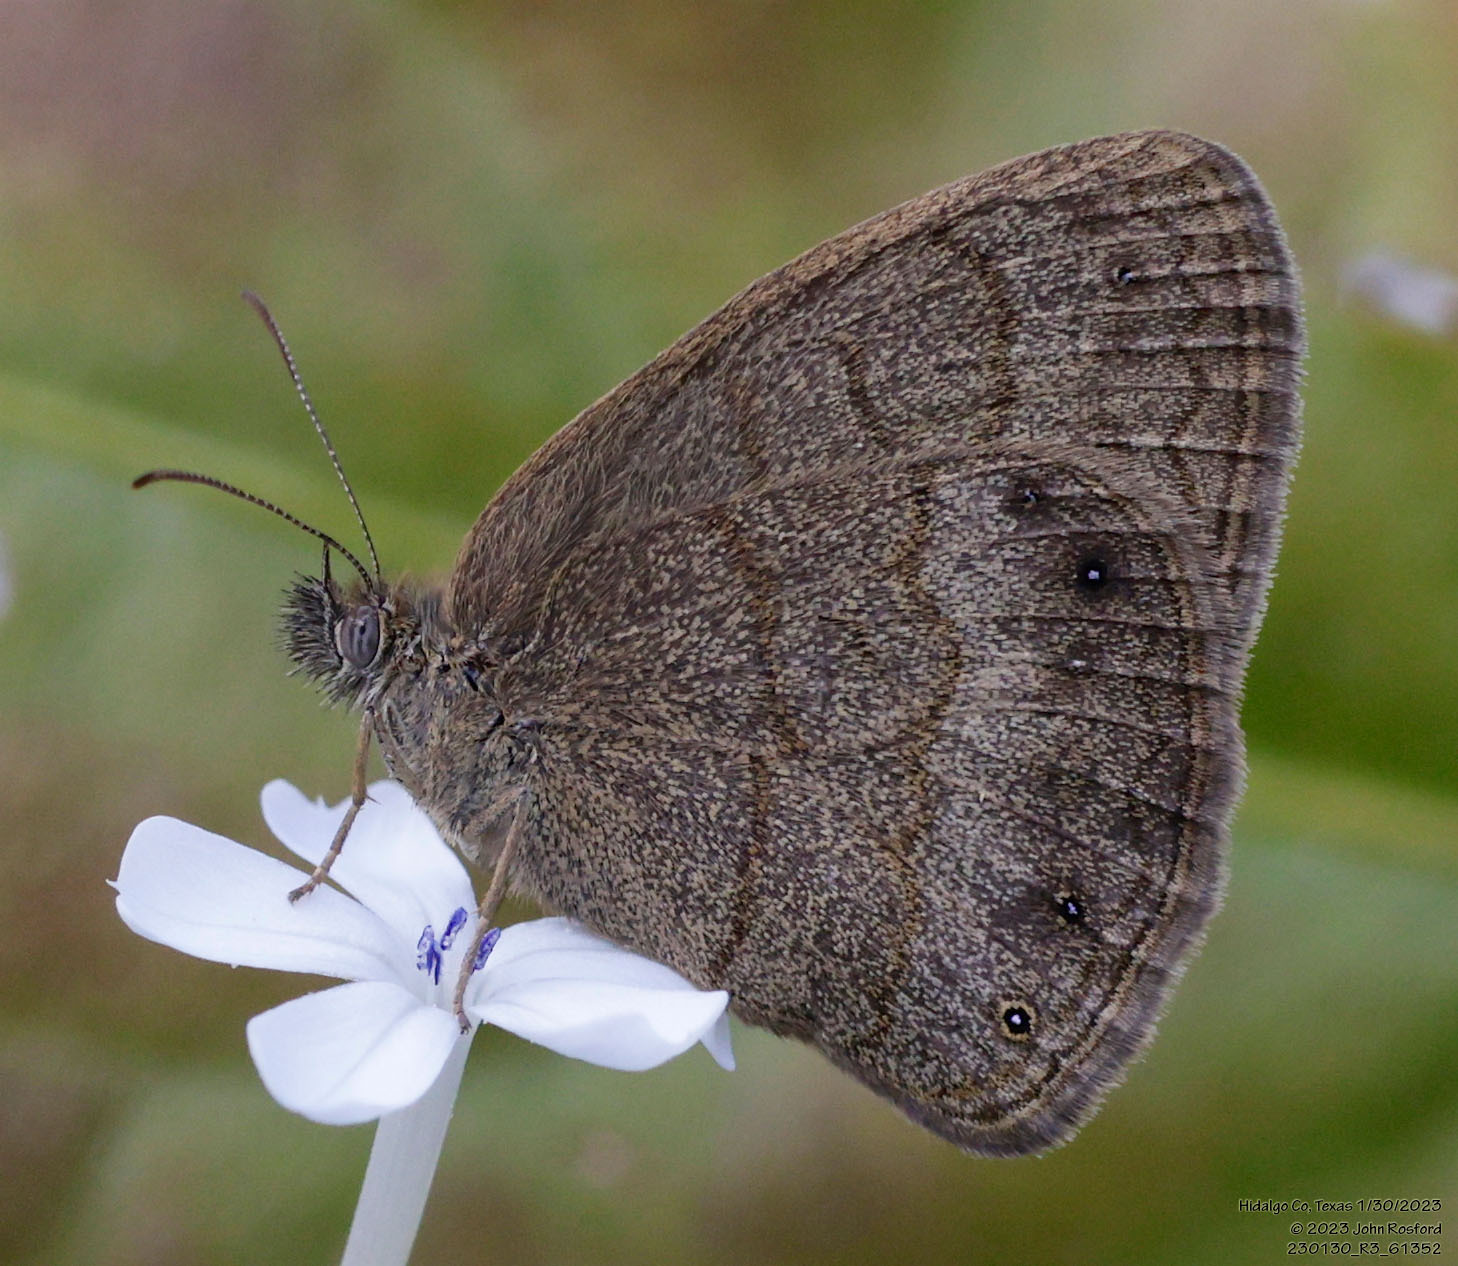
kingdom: Animalia
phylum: Arthropoda
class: Insecta
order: Lepidoptera
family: Nymphalidae
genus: Hermeuptychia
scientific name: Hermeuptychia hermybius
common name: South texas satyr
